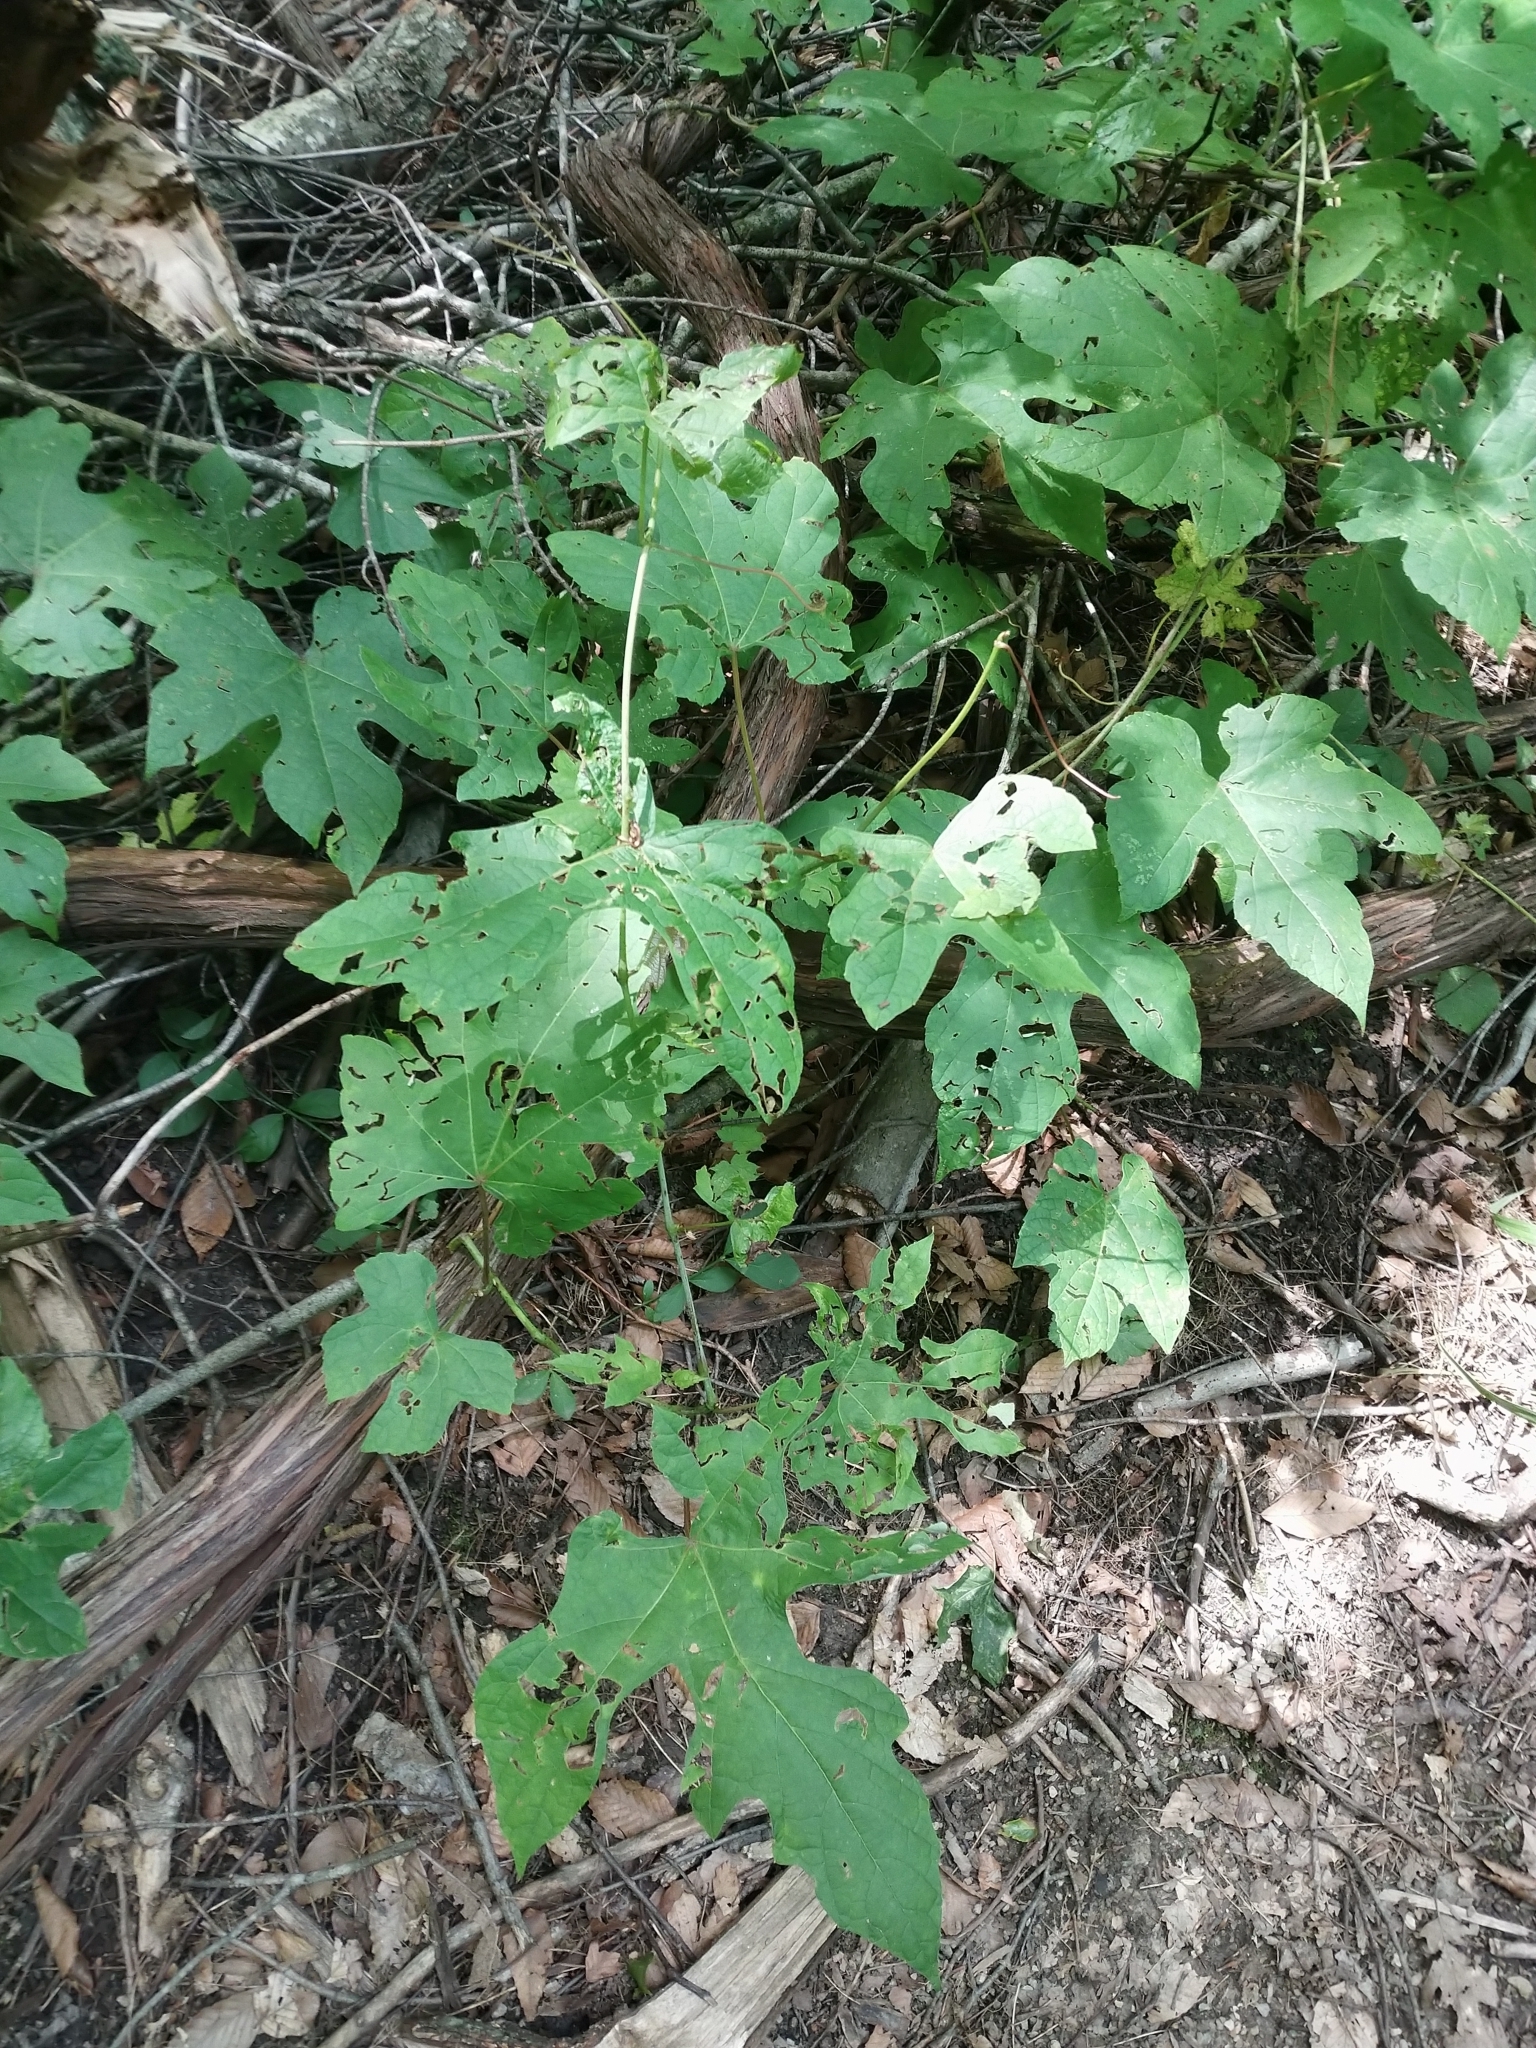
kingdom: Plantae
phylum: Tracheophyta
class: Magnoliopsida
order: Vitales
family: Vitaceae
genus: Vitis
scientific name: Vitis aestivalis
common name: Pigeon grape
